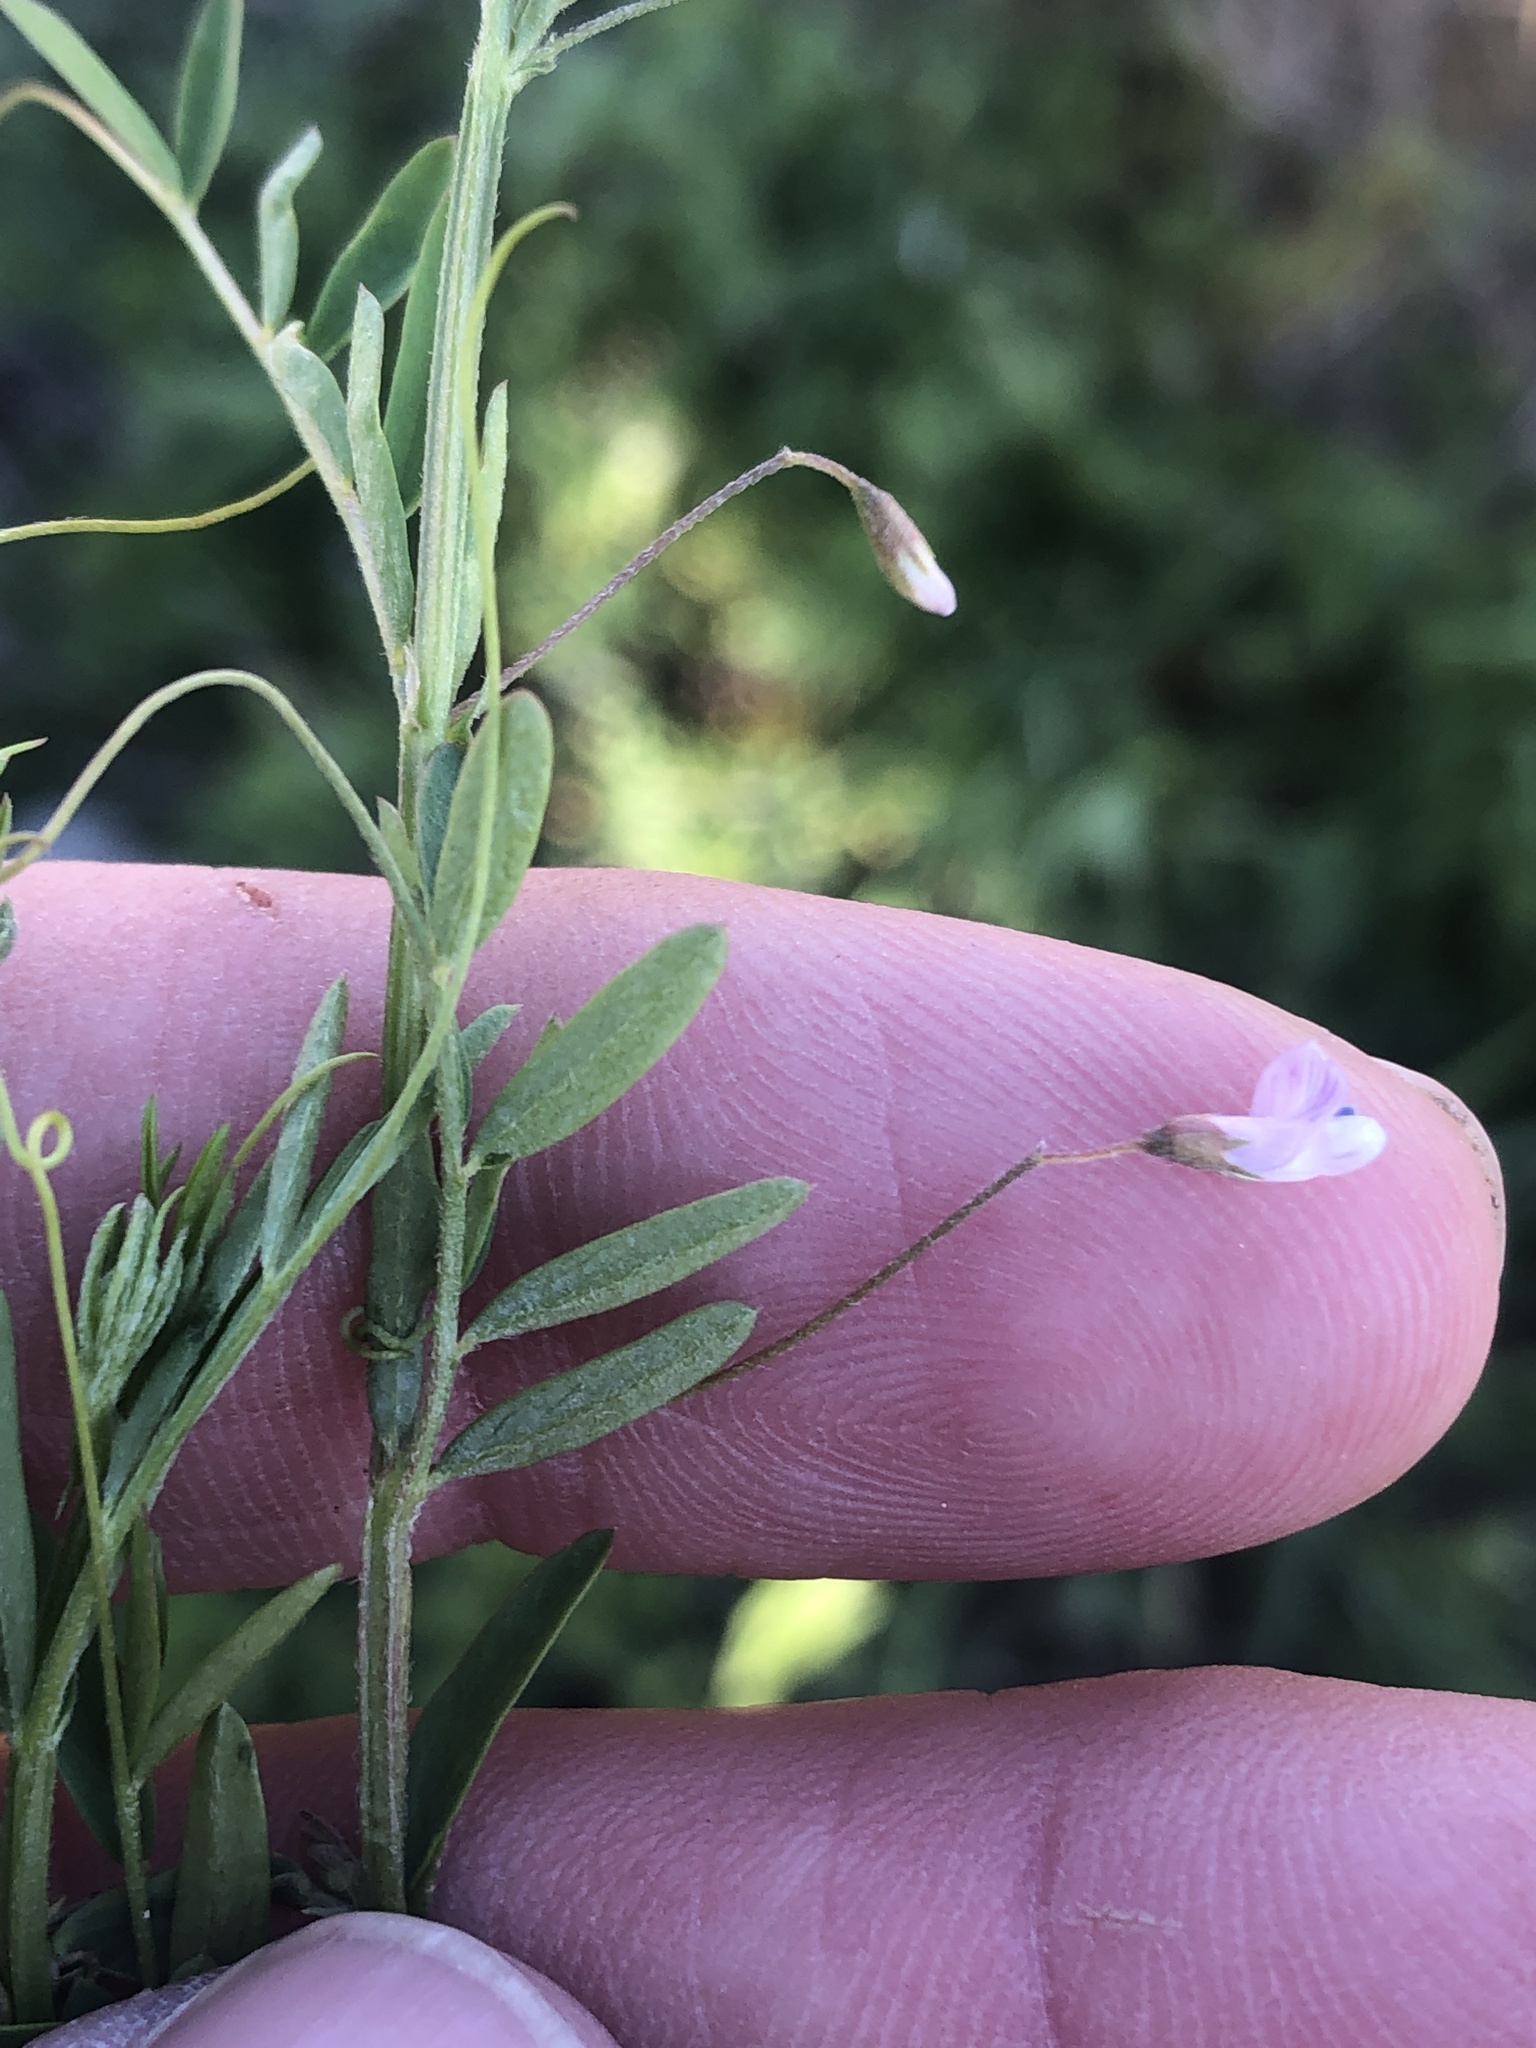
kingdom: Plantae
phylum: Tracheophyta
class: Magnoliopsida
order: Fabales
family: Fabaceae
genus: Vicia
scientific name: Vicia tetrasperma
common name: Smooth tare
